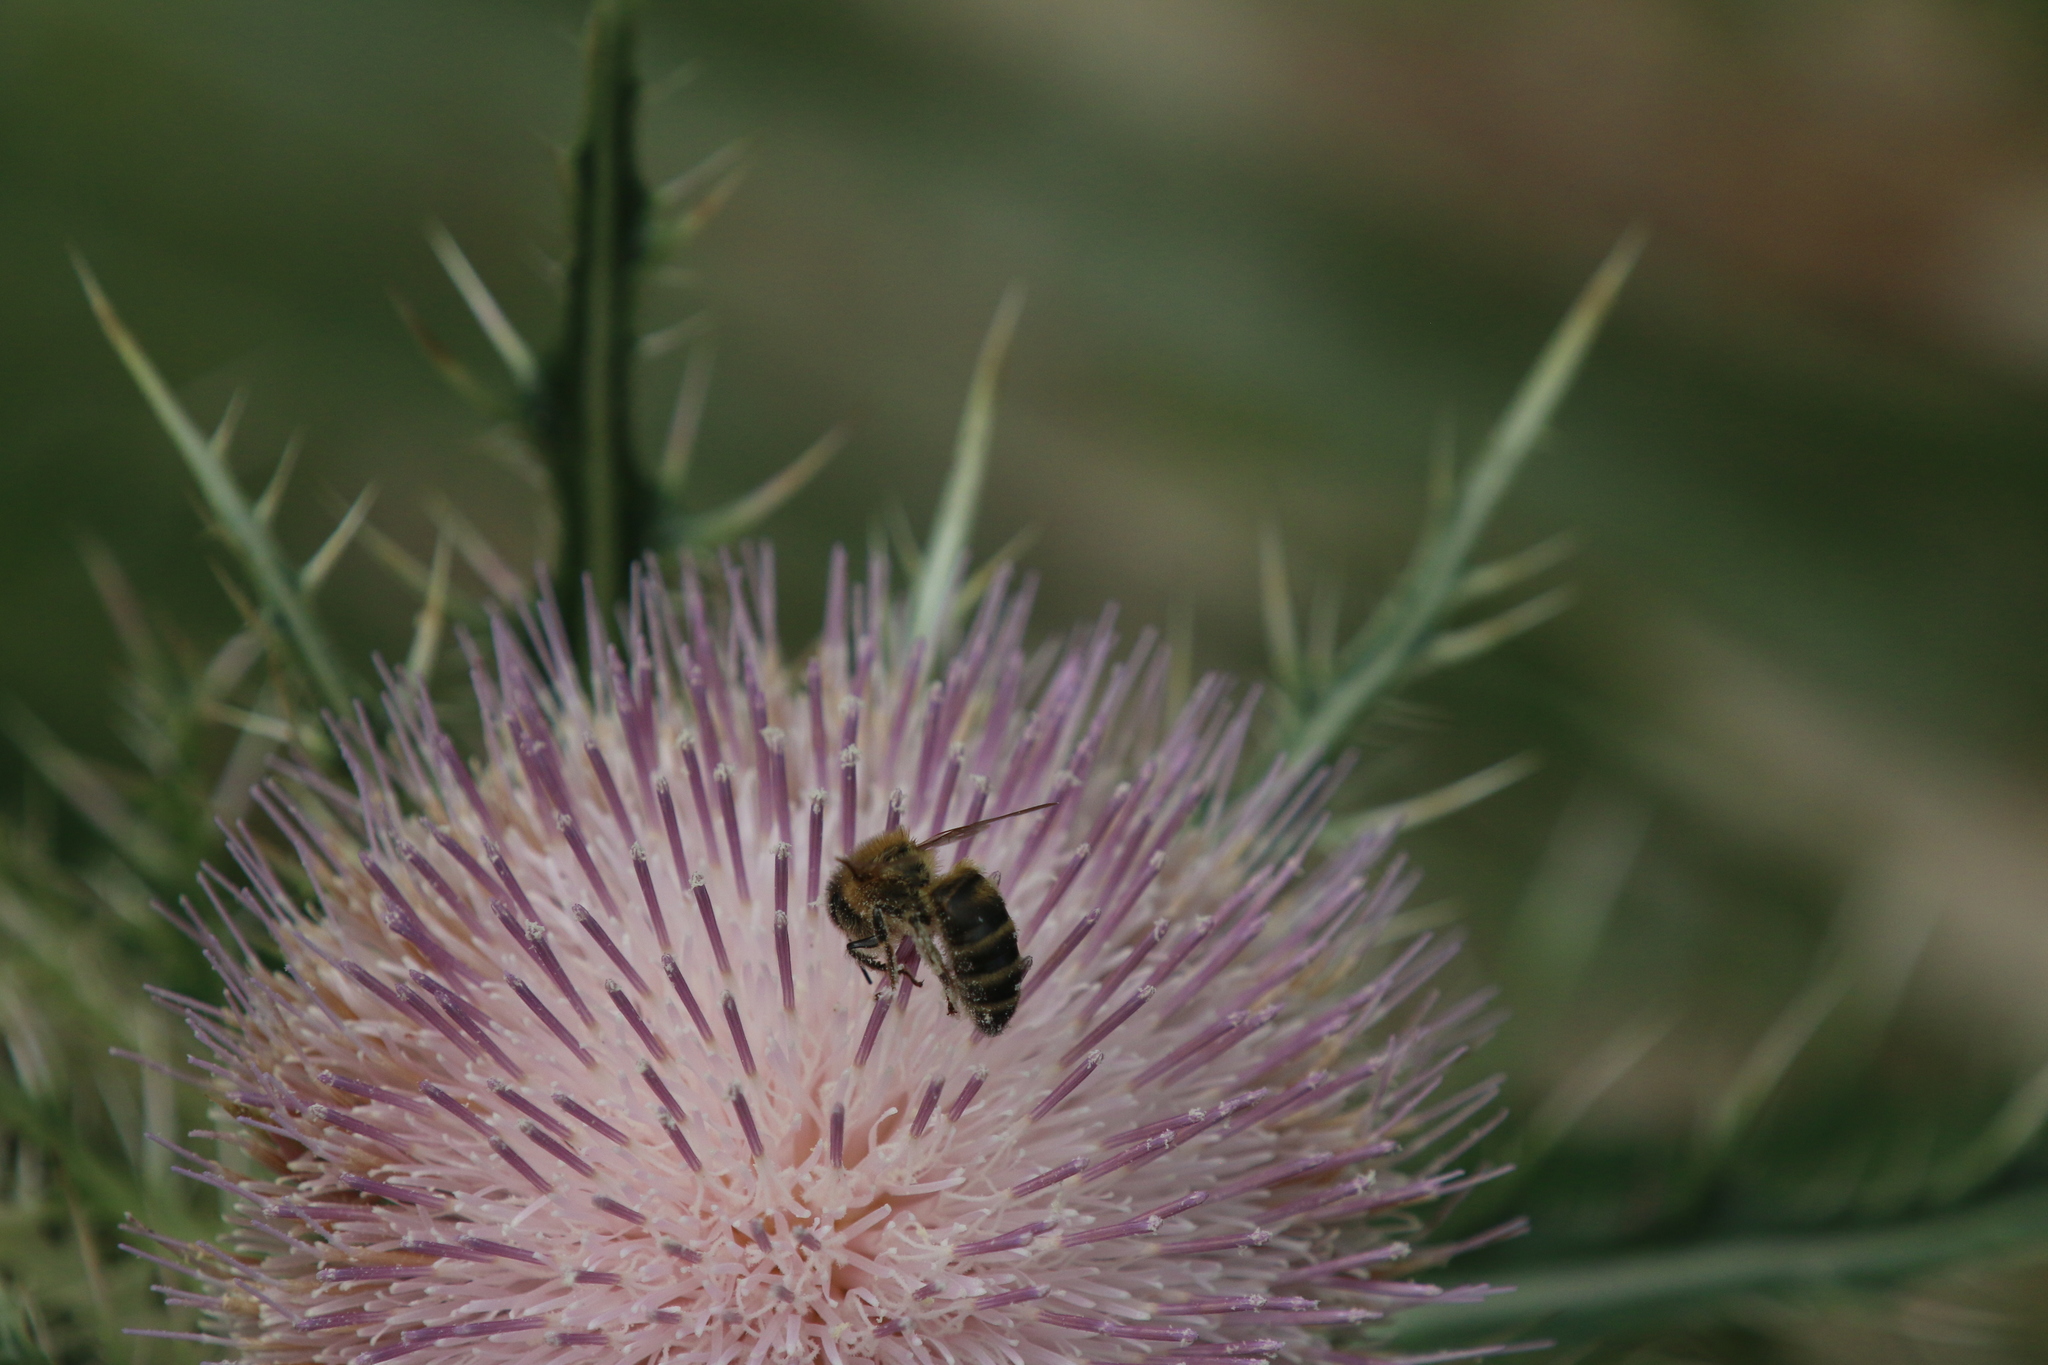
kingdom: Animalia
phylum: Arthropoda
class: Insecta
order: Hymenoptera
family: Apidae
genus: Apis
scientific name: Apis mellifera
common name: Honey bee
